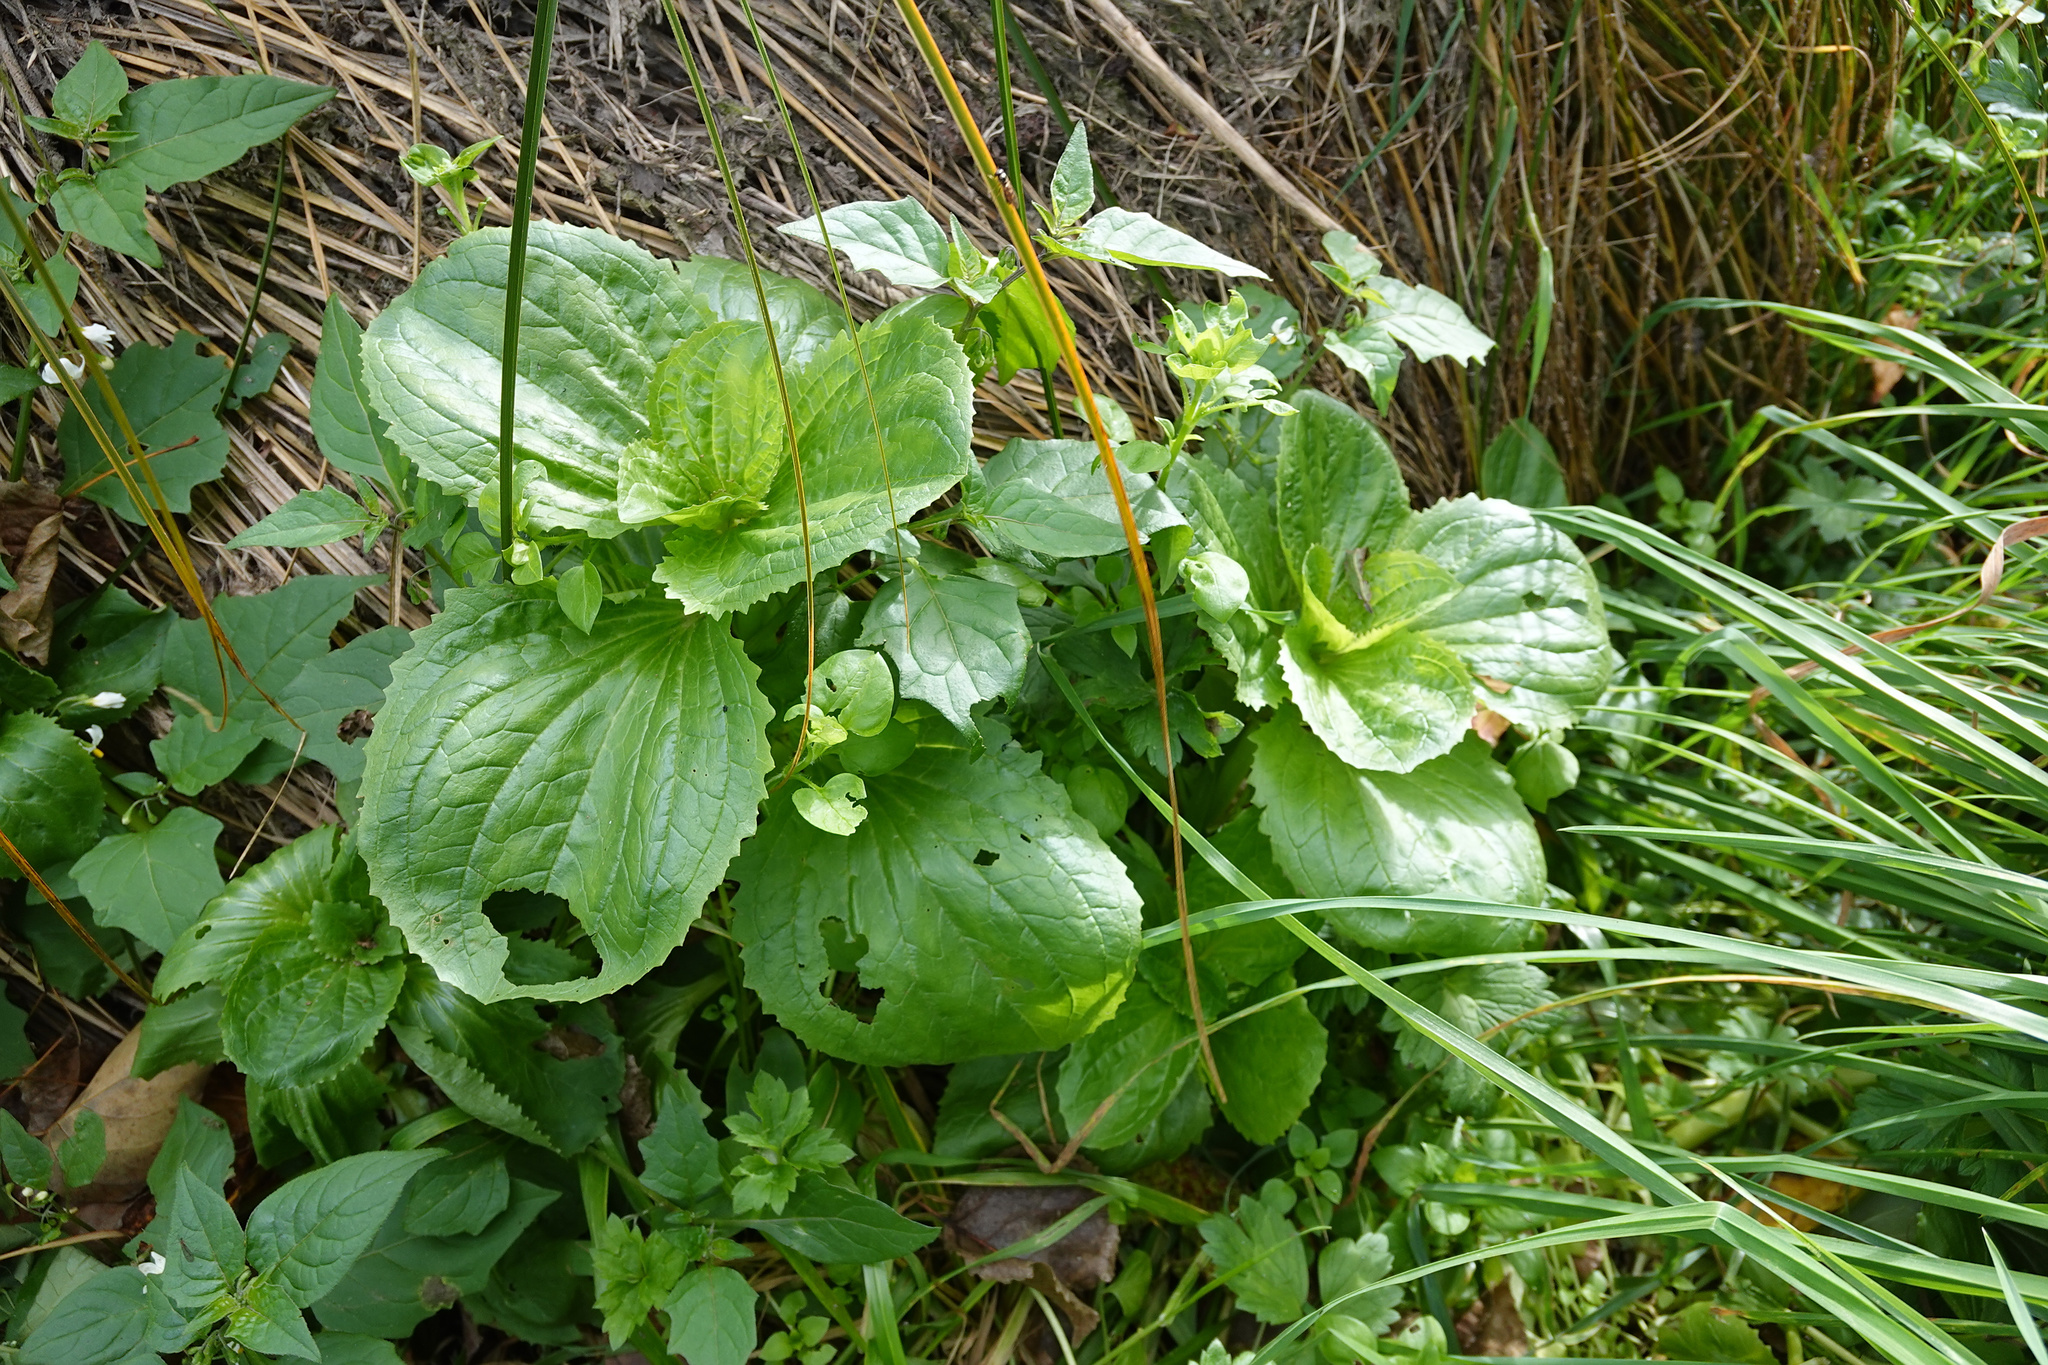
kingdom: Plantae
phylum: Tracheophyta
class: Magnoliopsida
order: Lamiales
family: Phrymaceae
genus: Erythranthe
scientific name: Erythranthe guttata
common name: Monkeyflower
